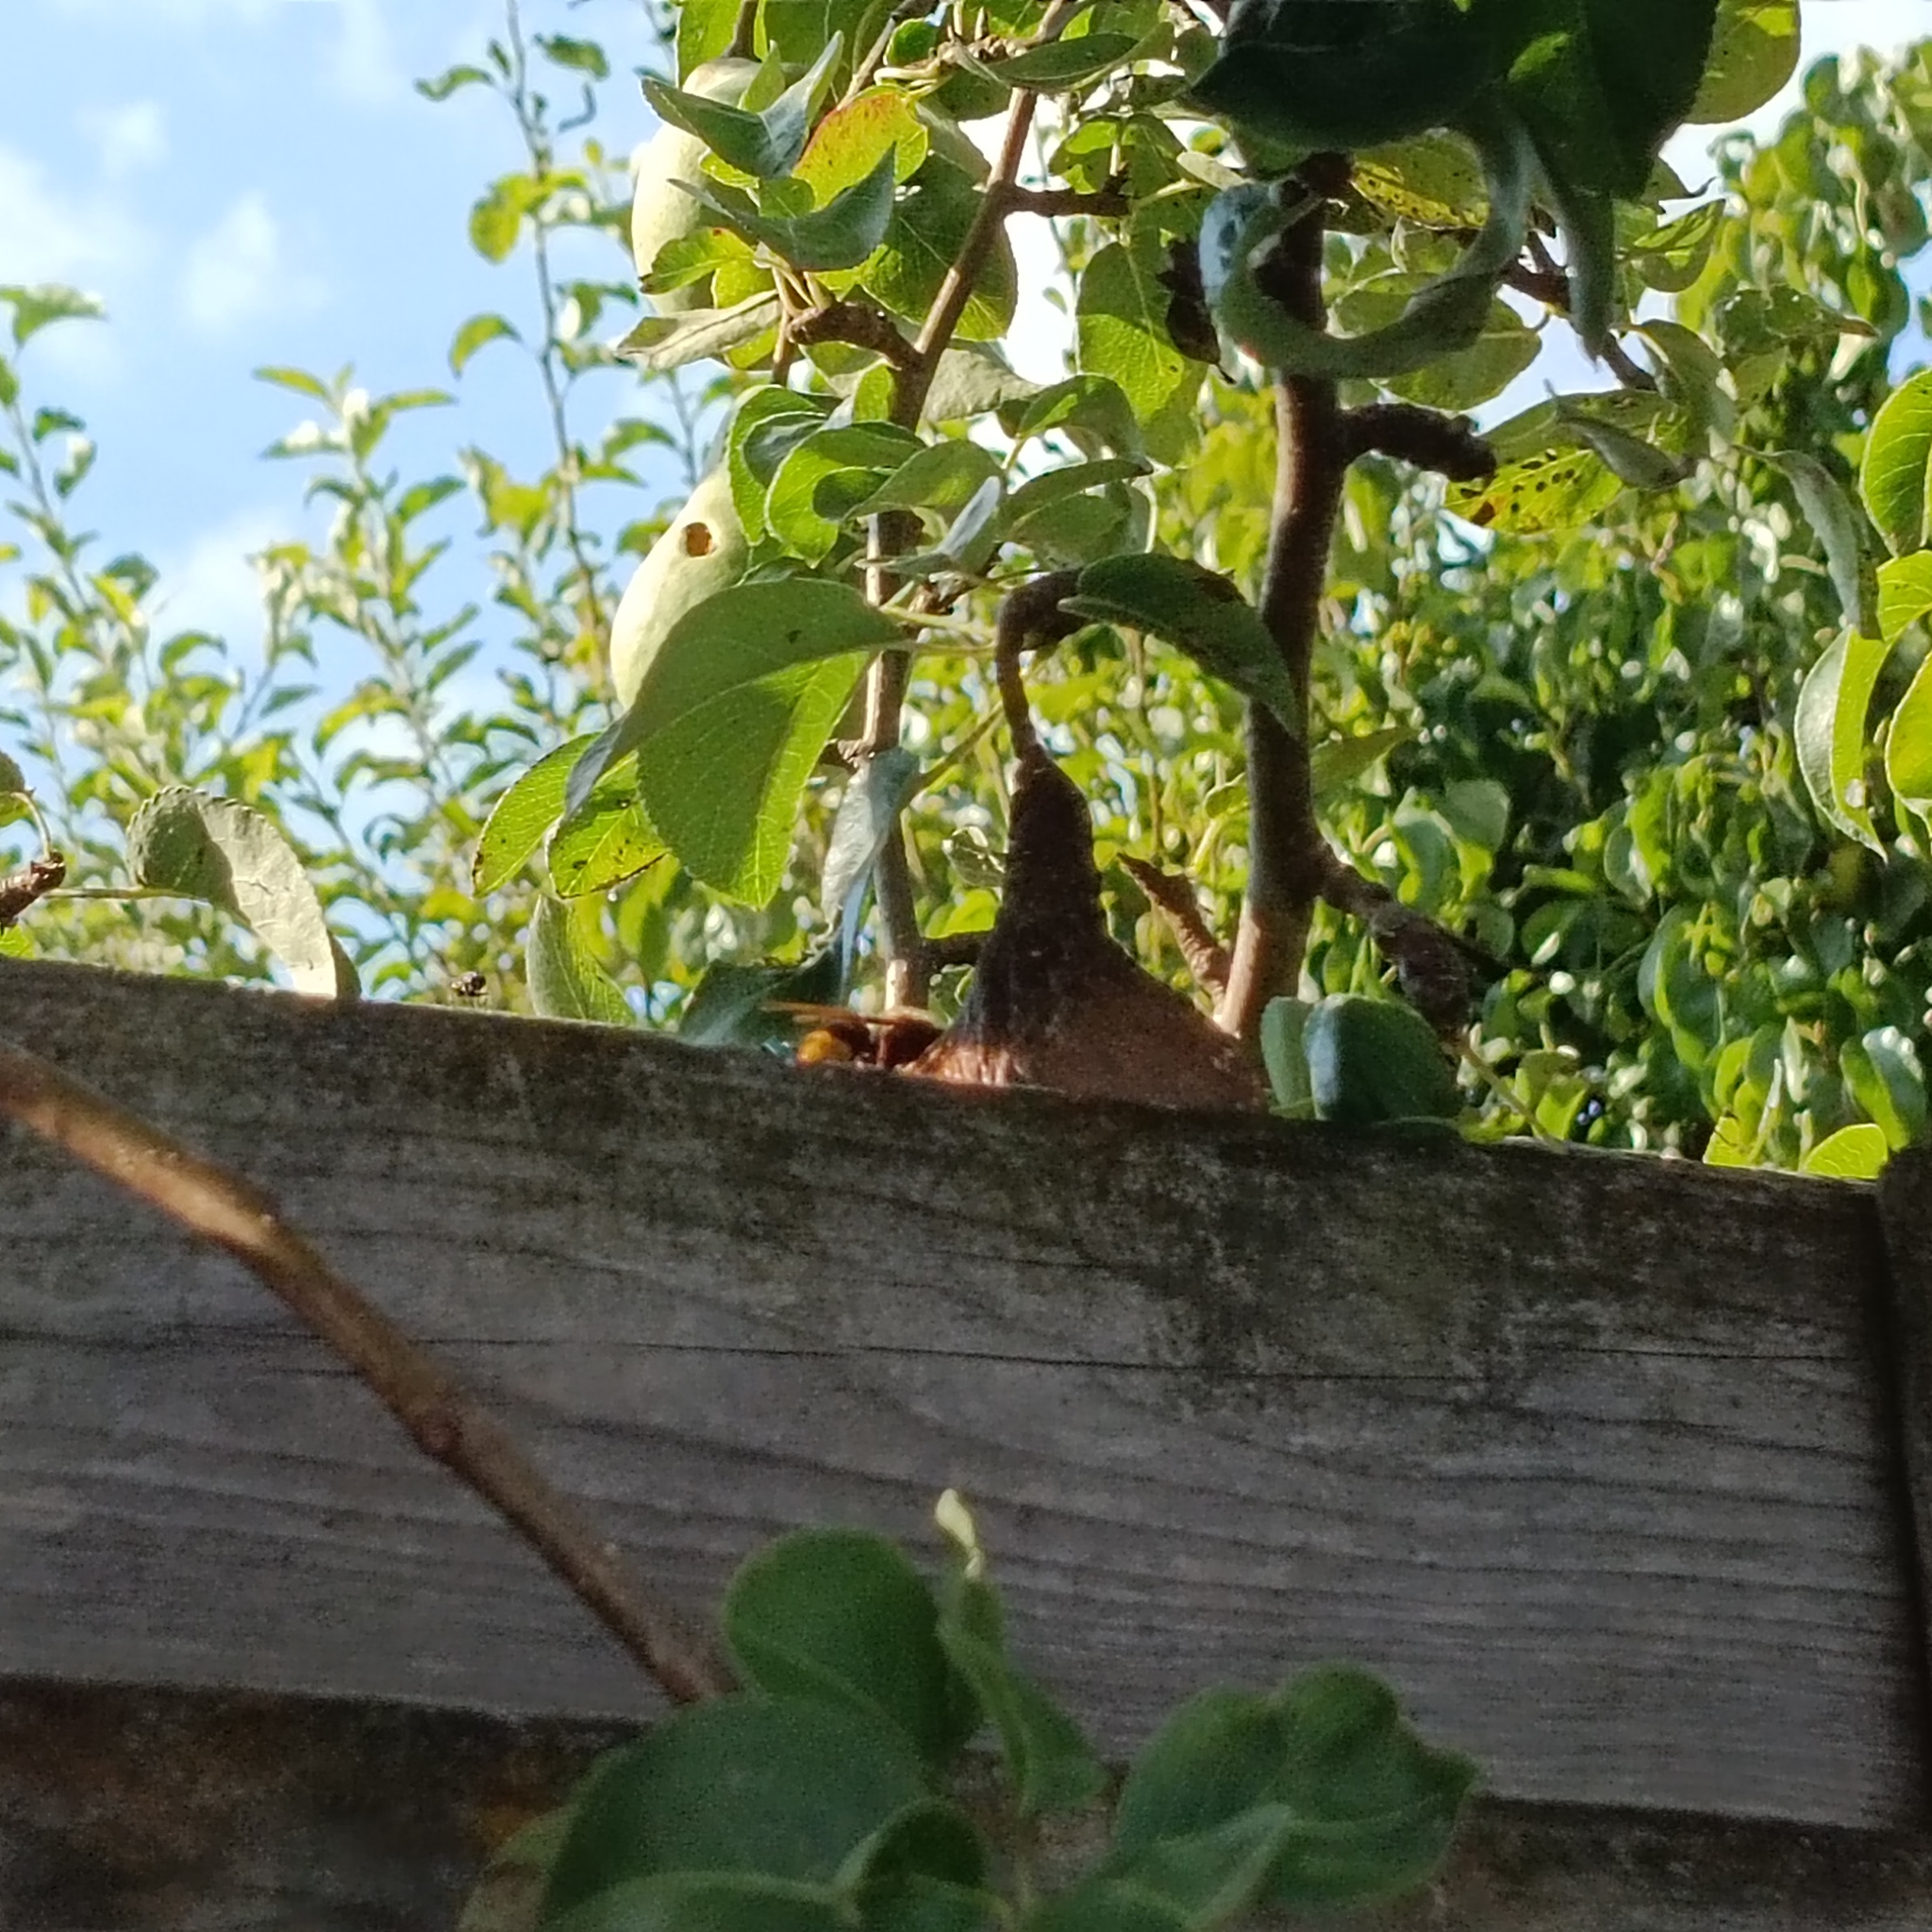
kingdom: Animalia
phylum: Arthropoda
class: Insecta
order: Hymenoptera
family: Vespidae
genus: Vespa
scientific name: Vespa crabro
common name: Hornet
